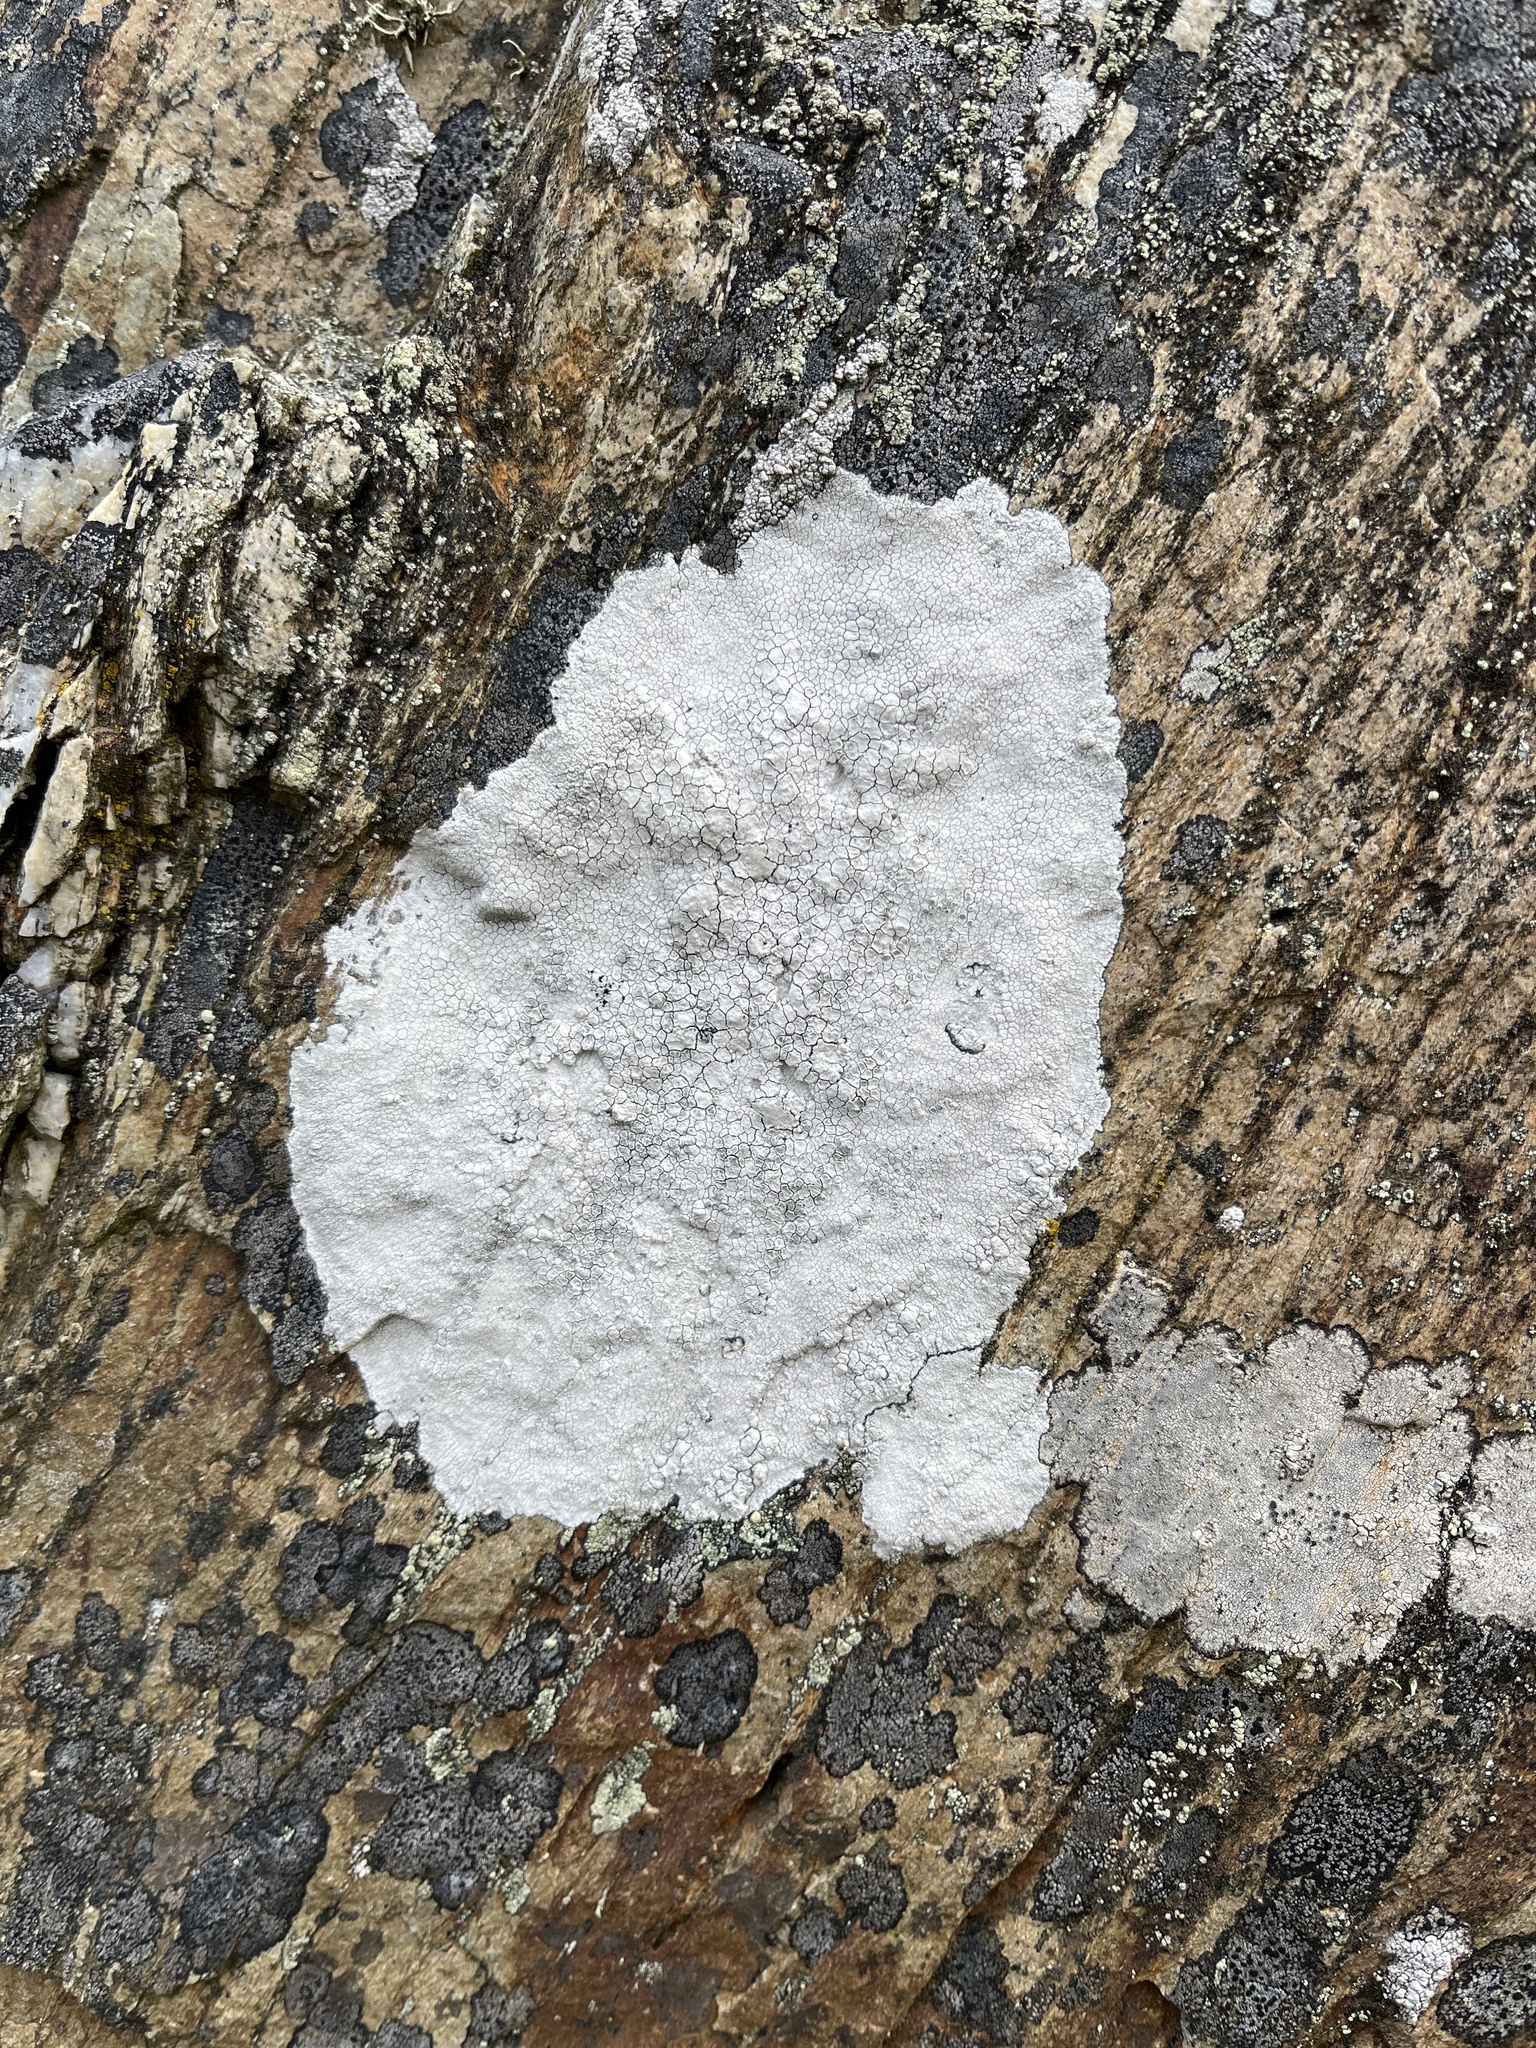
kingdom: Fungi
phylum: Ascomycota
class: Lecanoromycetes
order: Lecanorales
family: Lecanoraceae
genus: Glaucomaria
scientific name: Glaucomaria rupicola
